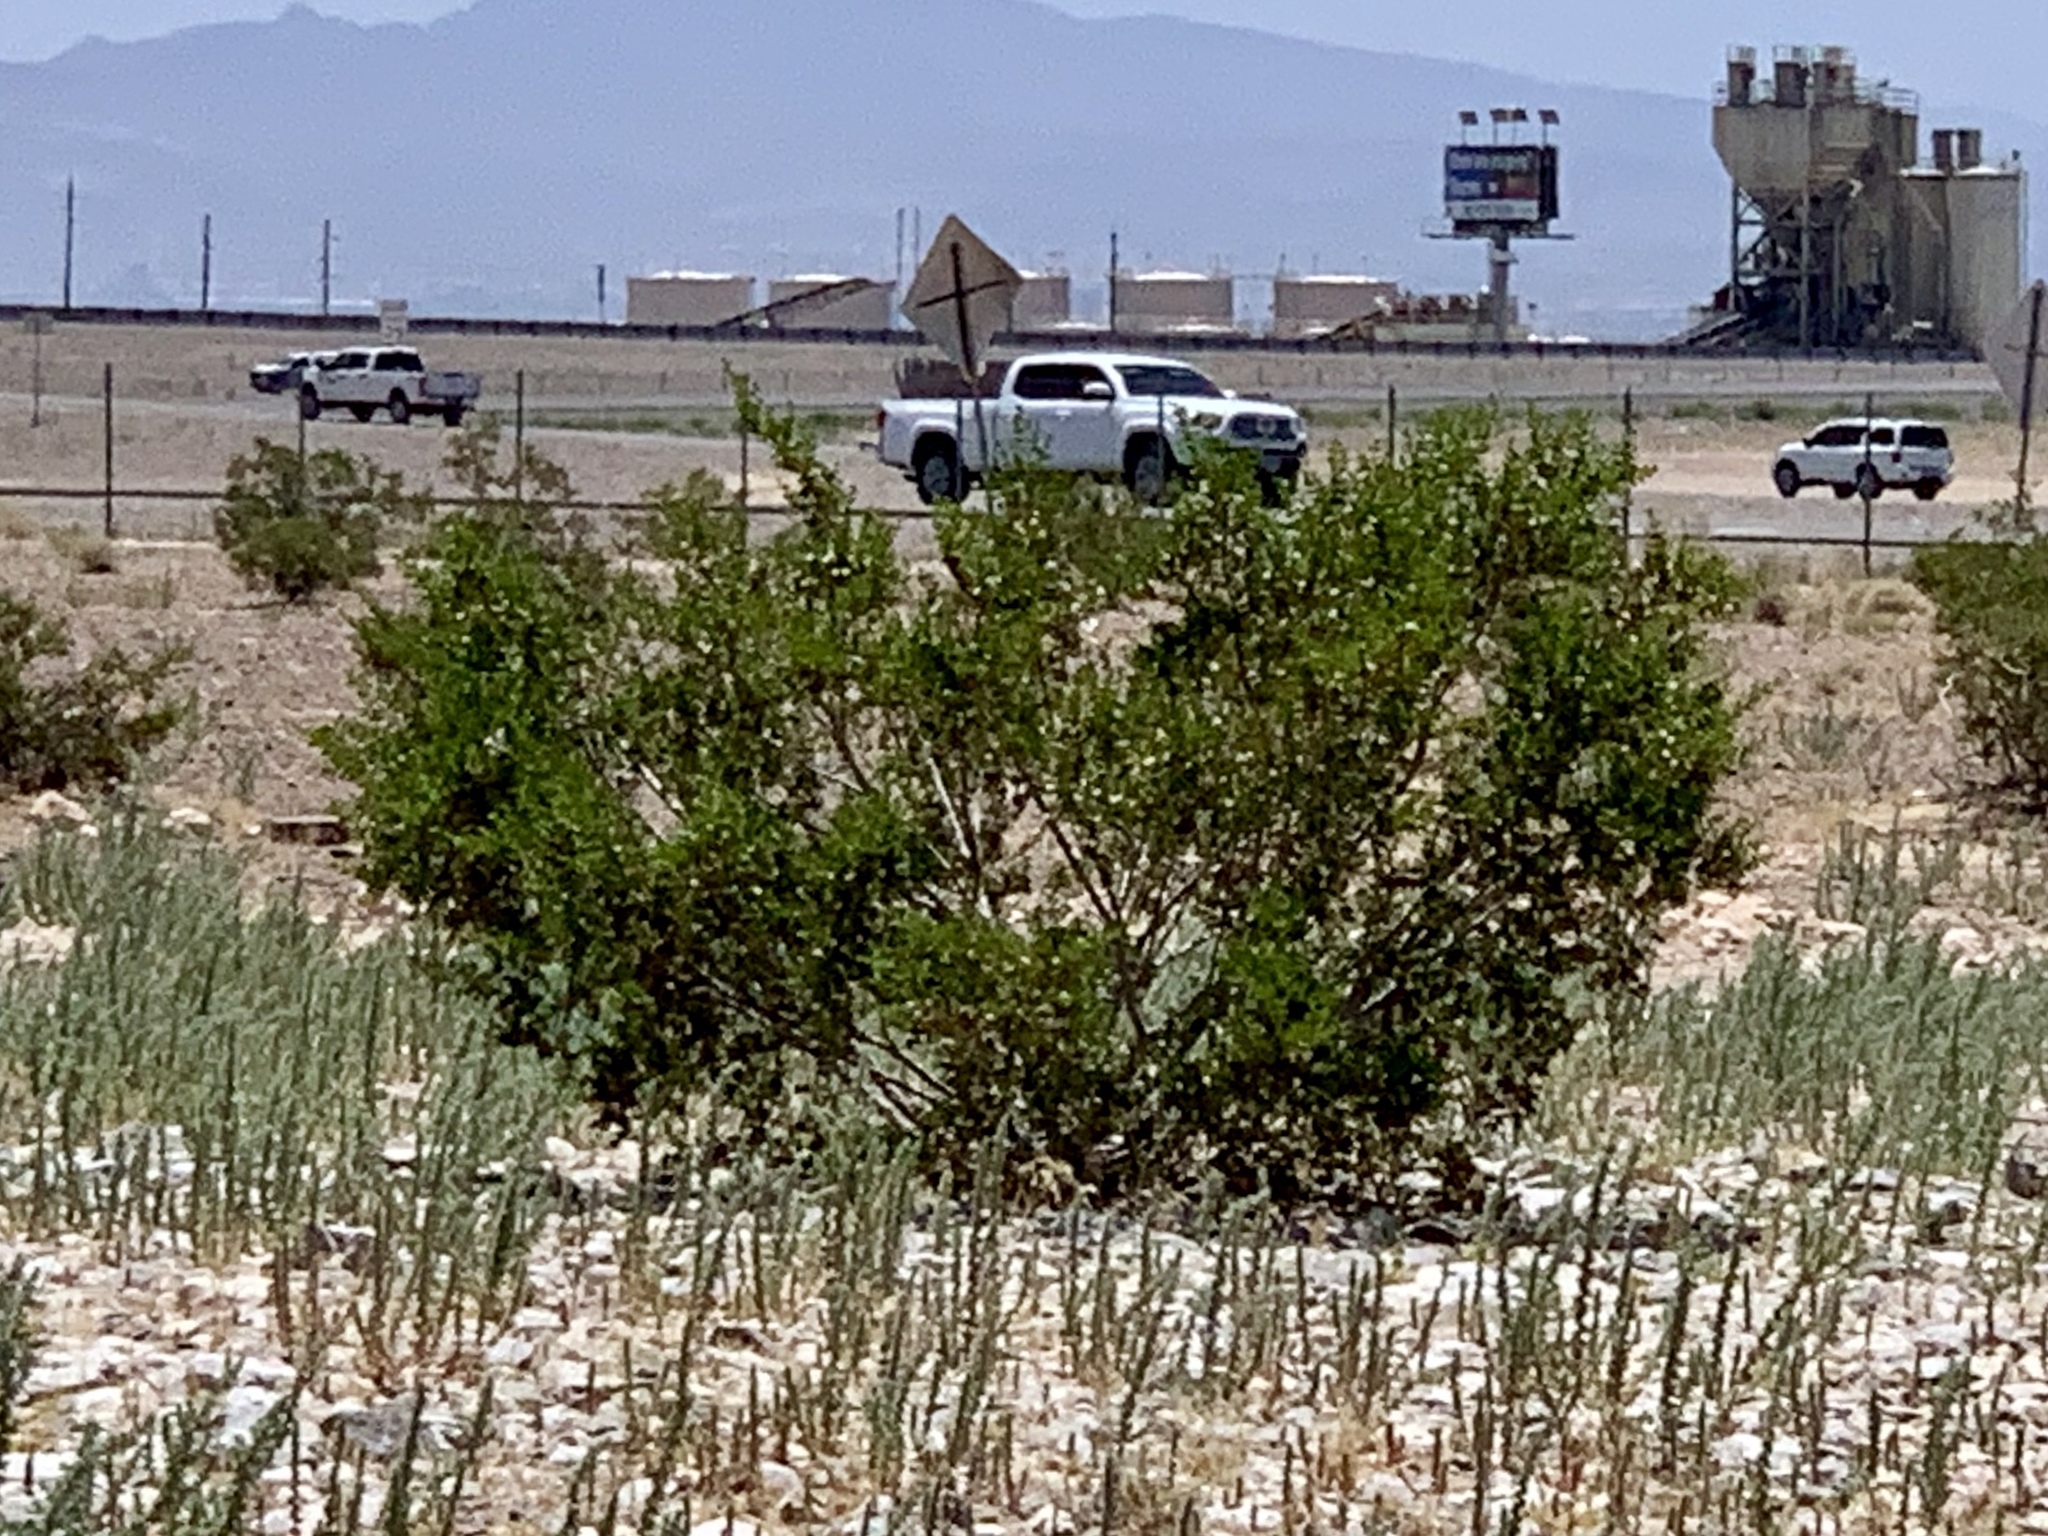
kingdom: Plantae
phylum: Tracheophyta
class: Magnoliopsida
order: Zygophyllales
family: Zygophyllaceae
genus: Larrea
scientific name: Larrea tridentata
